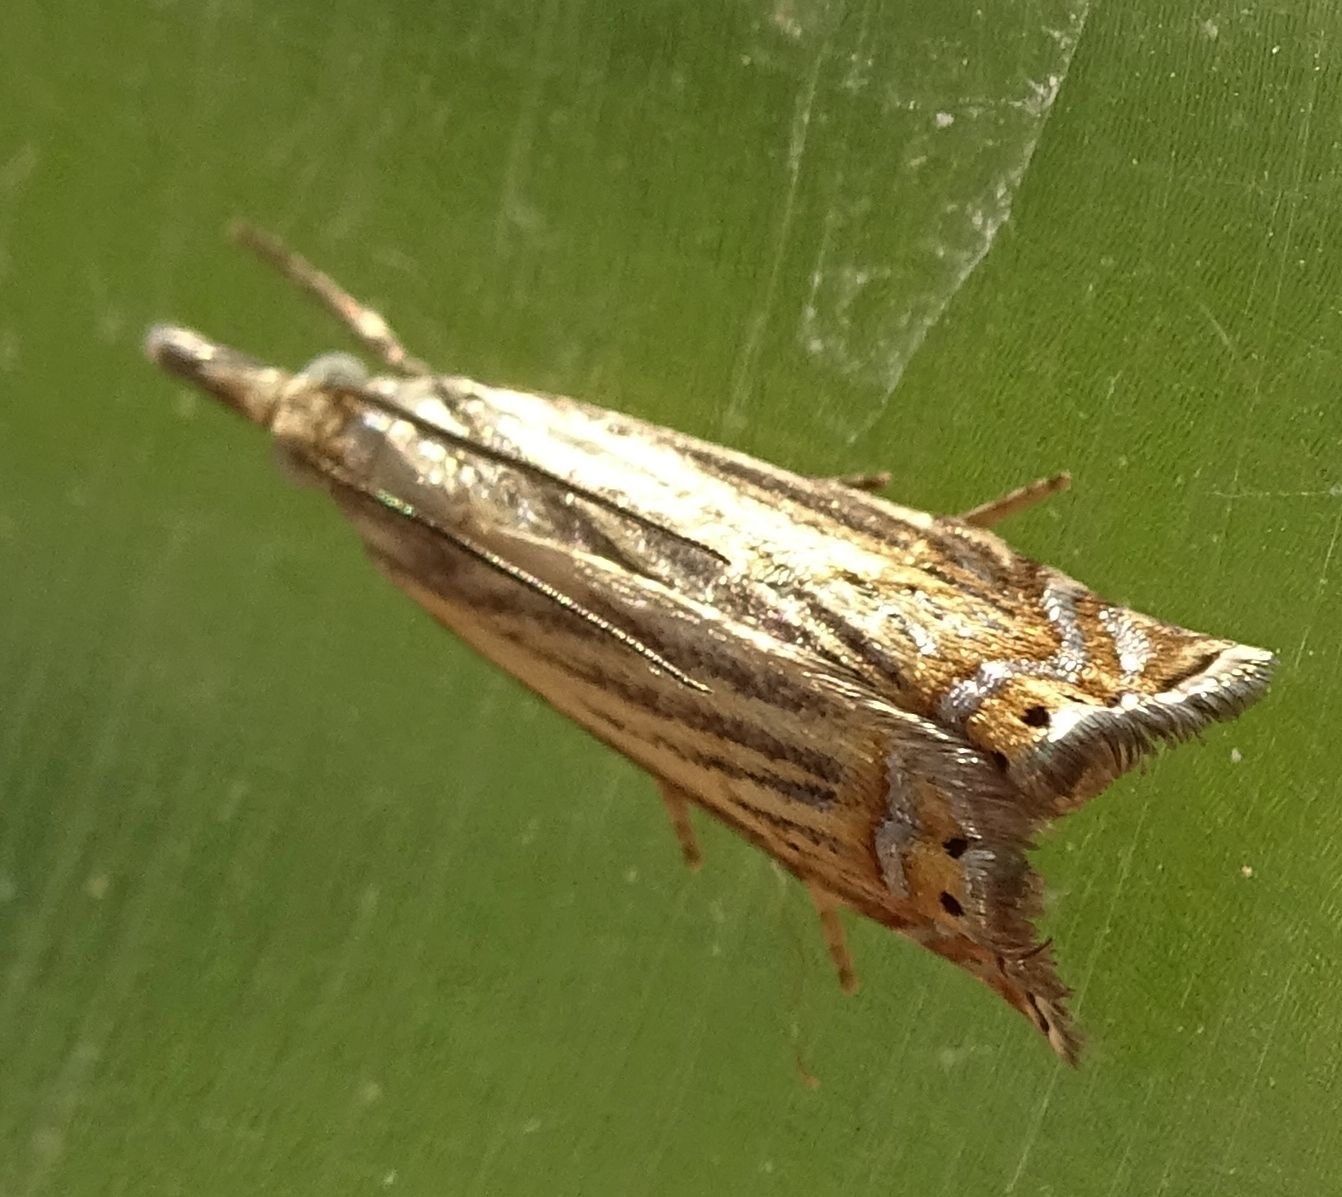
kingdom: Animalia
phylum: Arthropoda
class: Insecta
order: Lepidoptera
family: Crambidae
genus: Chrysoteuchia
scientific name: Chrysoteuchia topiarius
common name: Topiary grass-veneer
